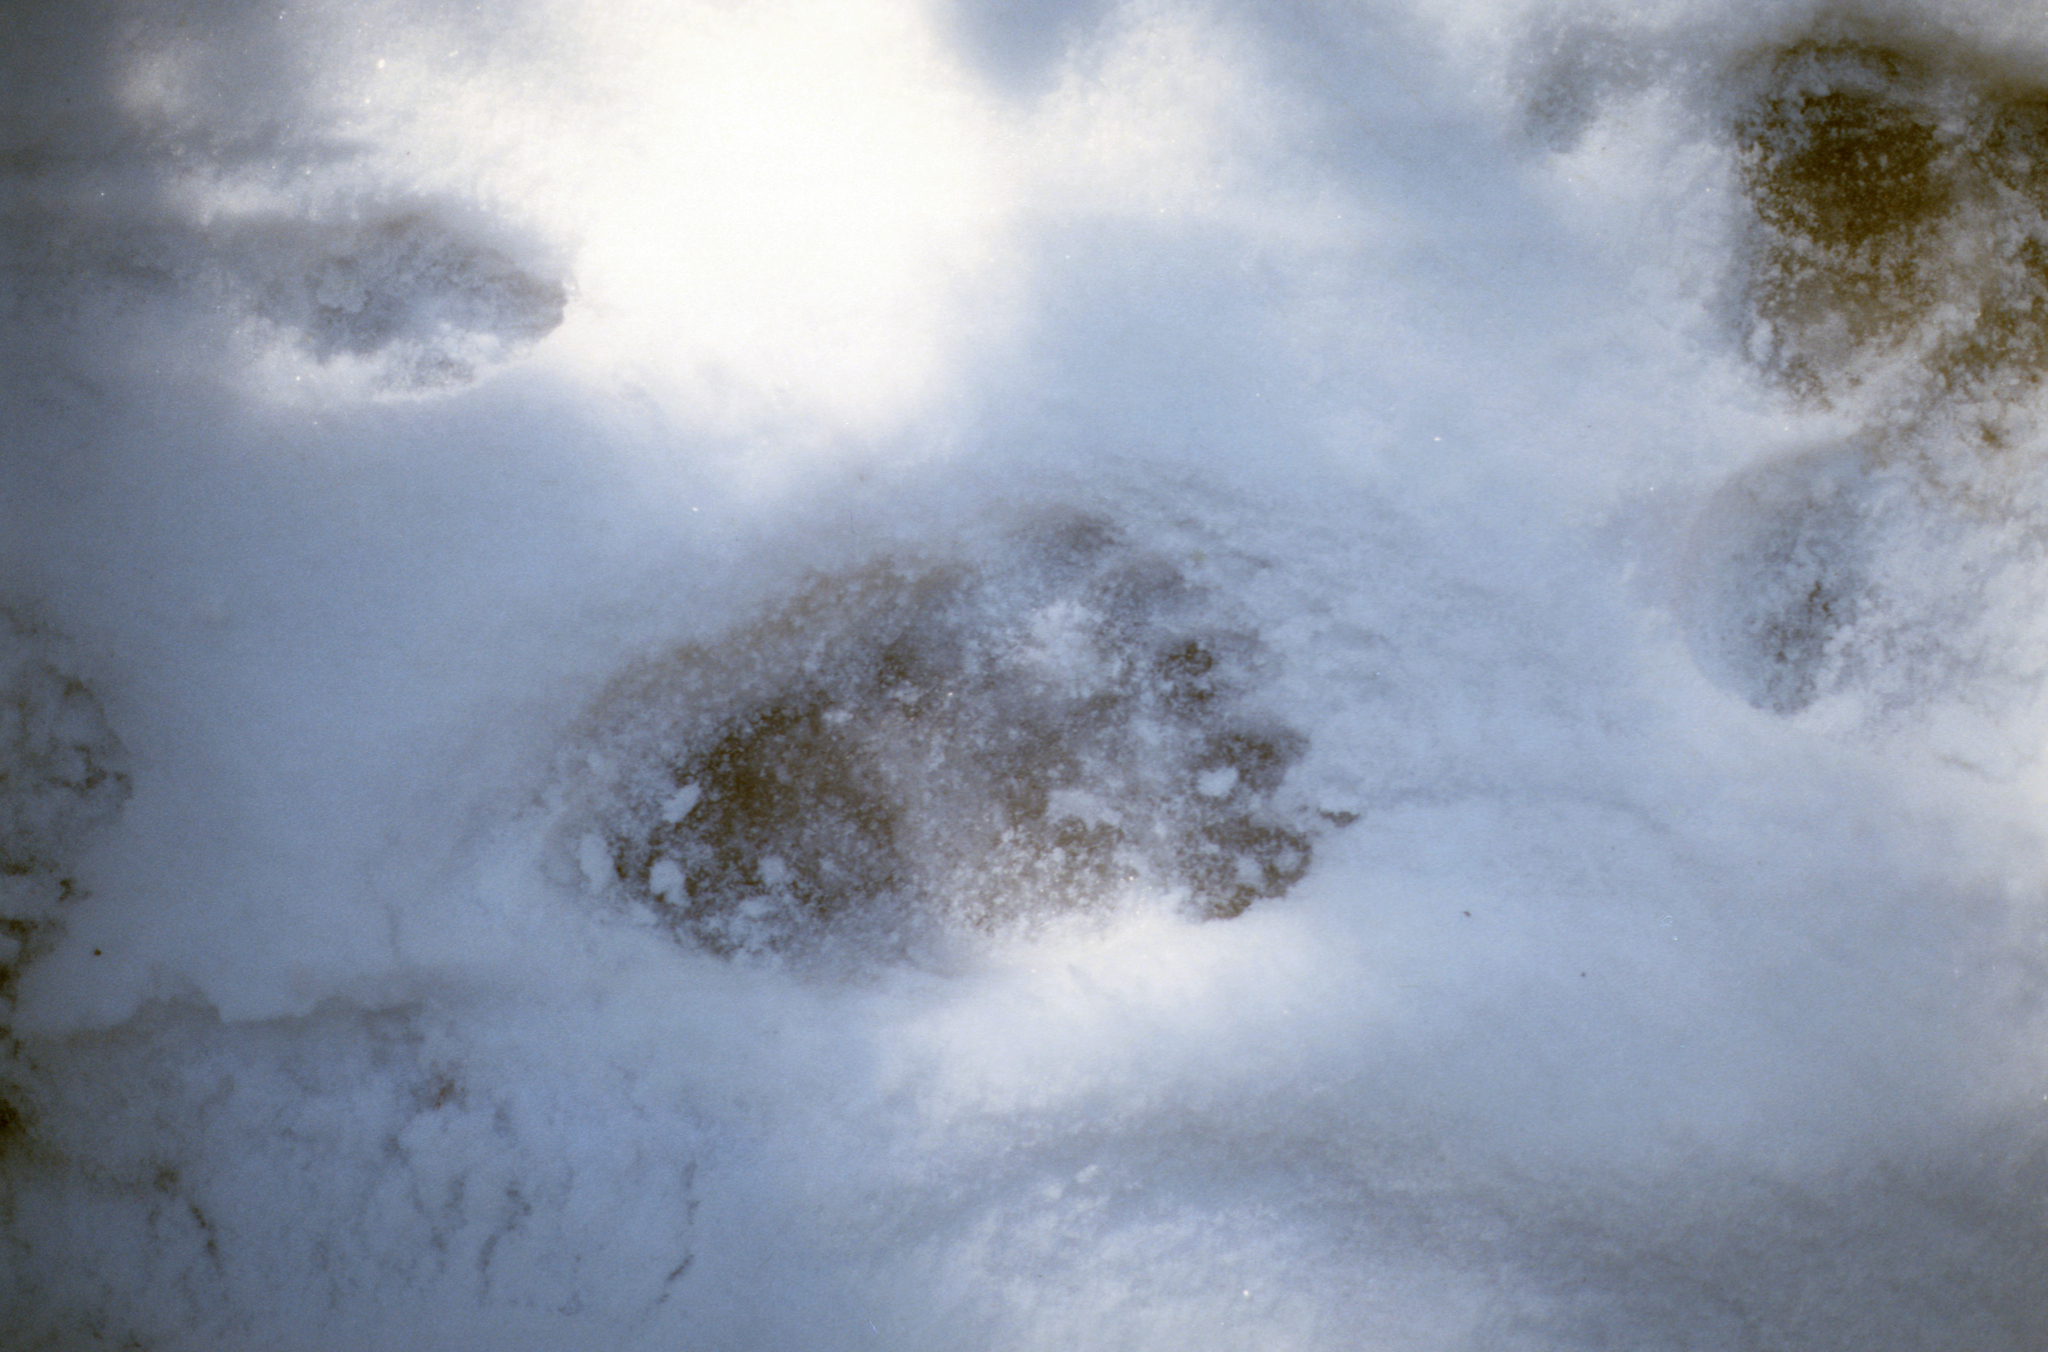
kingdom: Animalia
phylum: Chordata
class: Mammalia
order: Carnivora
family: Ursidae
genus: Ursus
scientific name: Ursus arctos
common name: Brown bear
